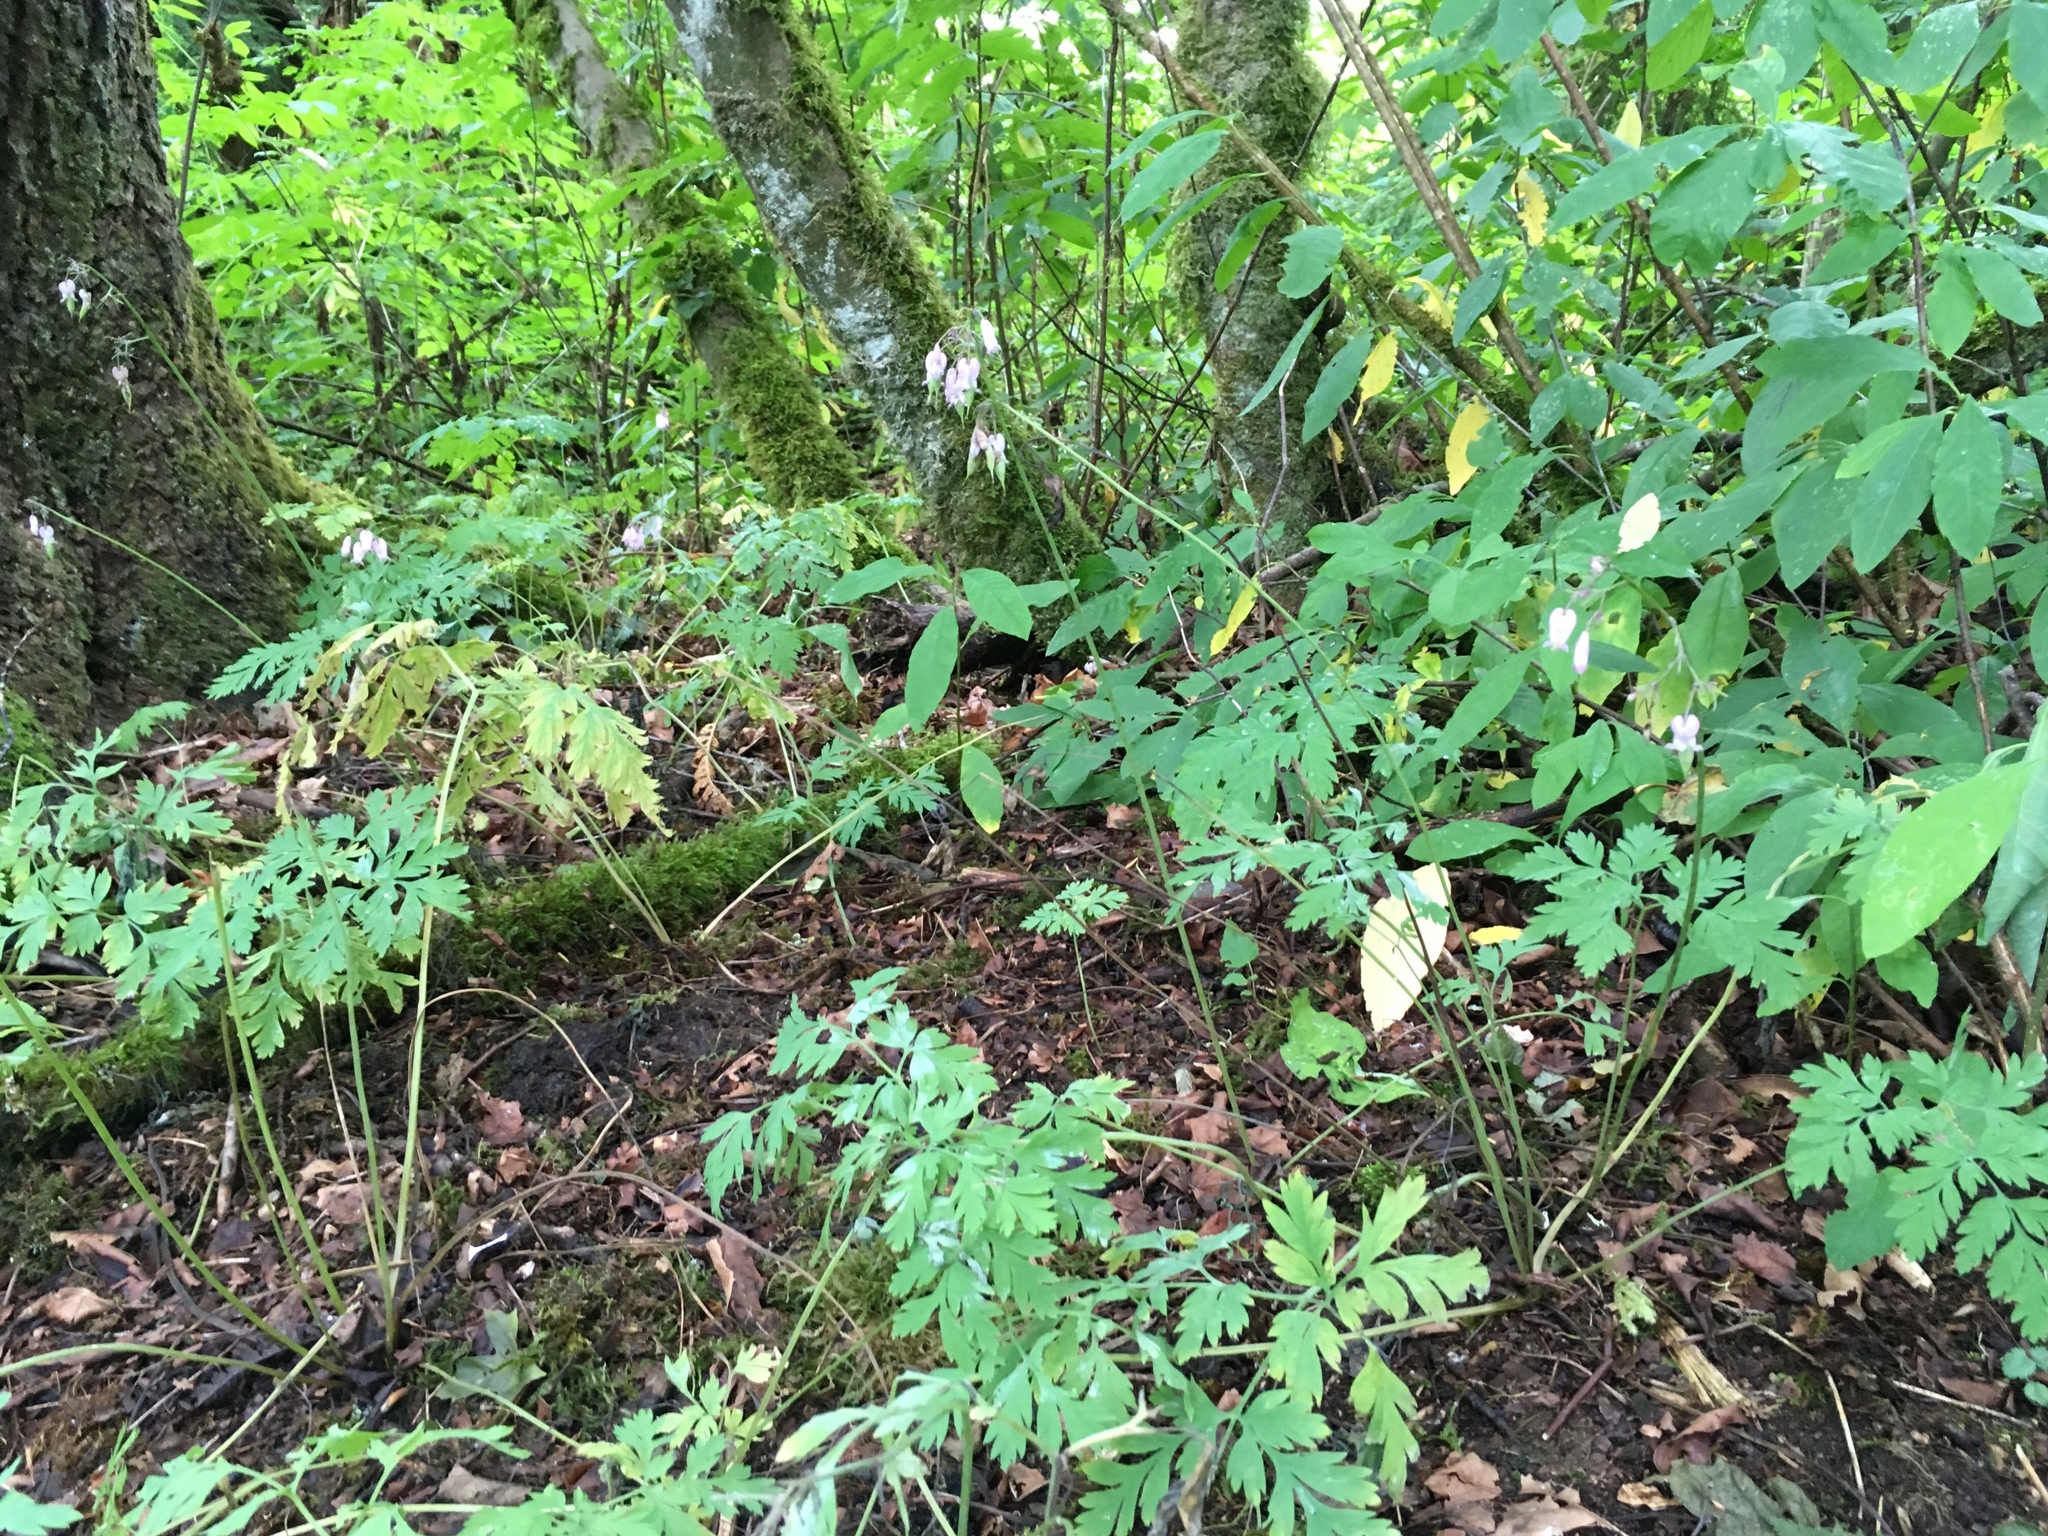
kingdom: Plantae
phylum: Tracheophyta
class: Magnoliopsida
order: Ranunculales
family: Papaveraceae
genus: Dicentra
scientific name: Dicentra formosa
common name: Bleeding-heart
